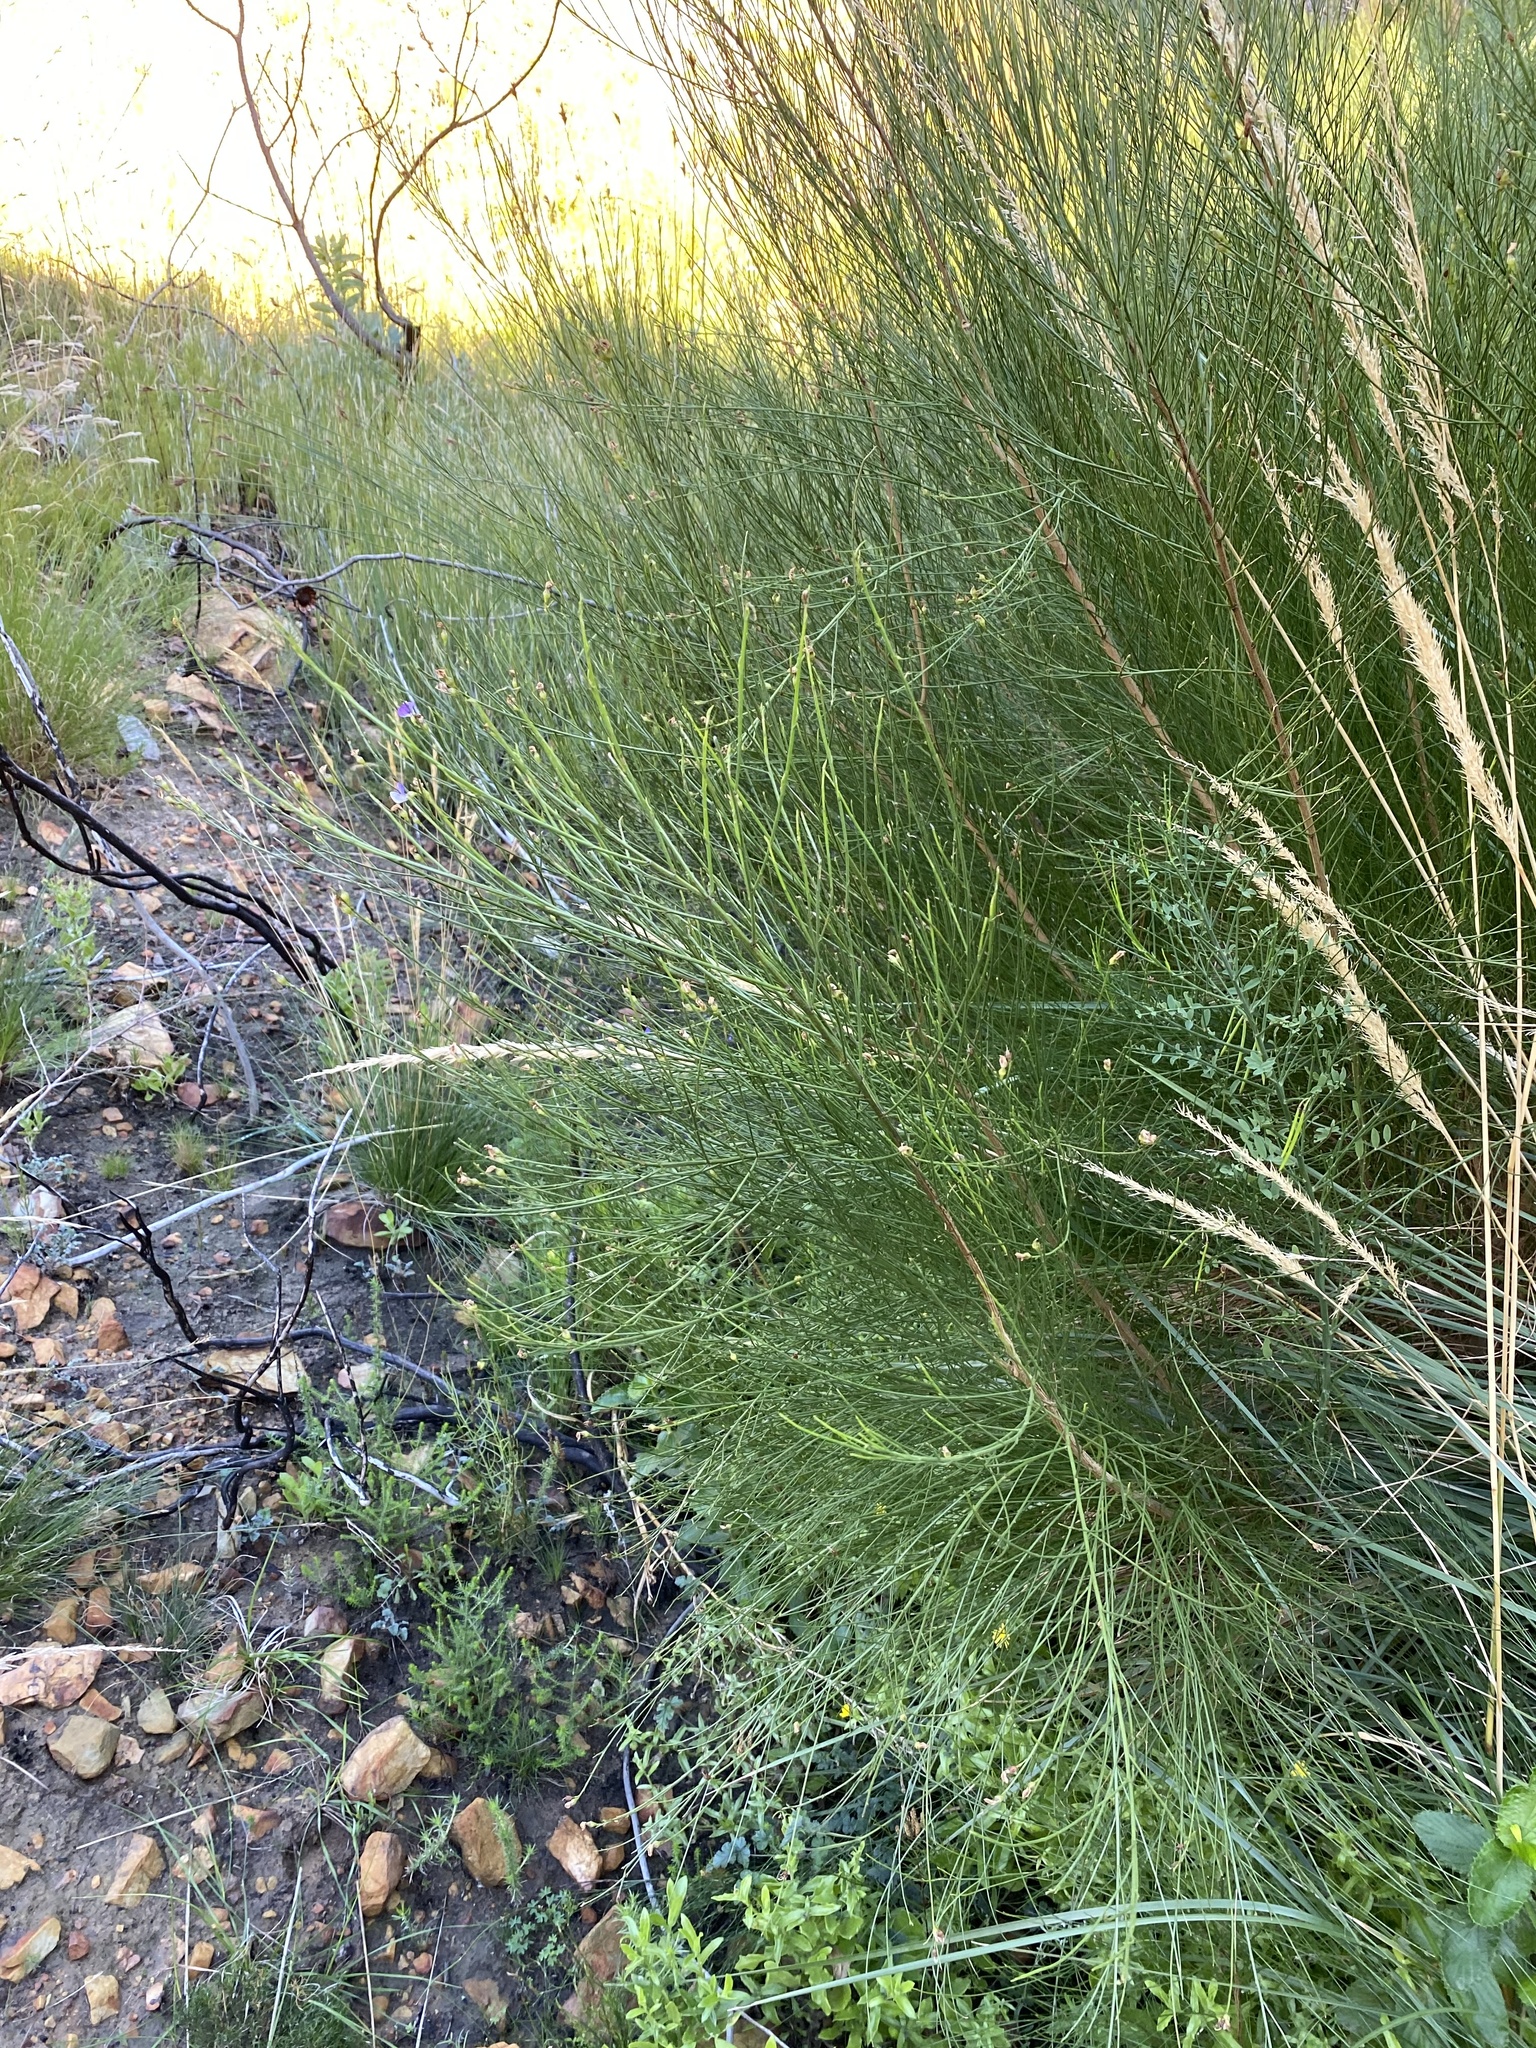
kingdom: Plantae
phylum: Tracheophyta
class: Magnoliopsida
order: Fabales
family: Fabaceae
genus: Psoralea
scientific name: Psoralea usitata
